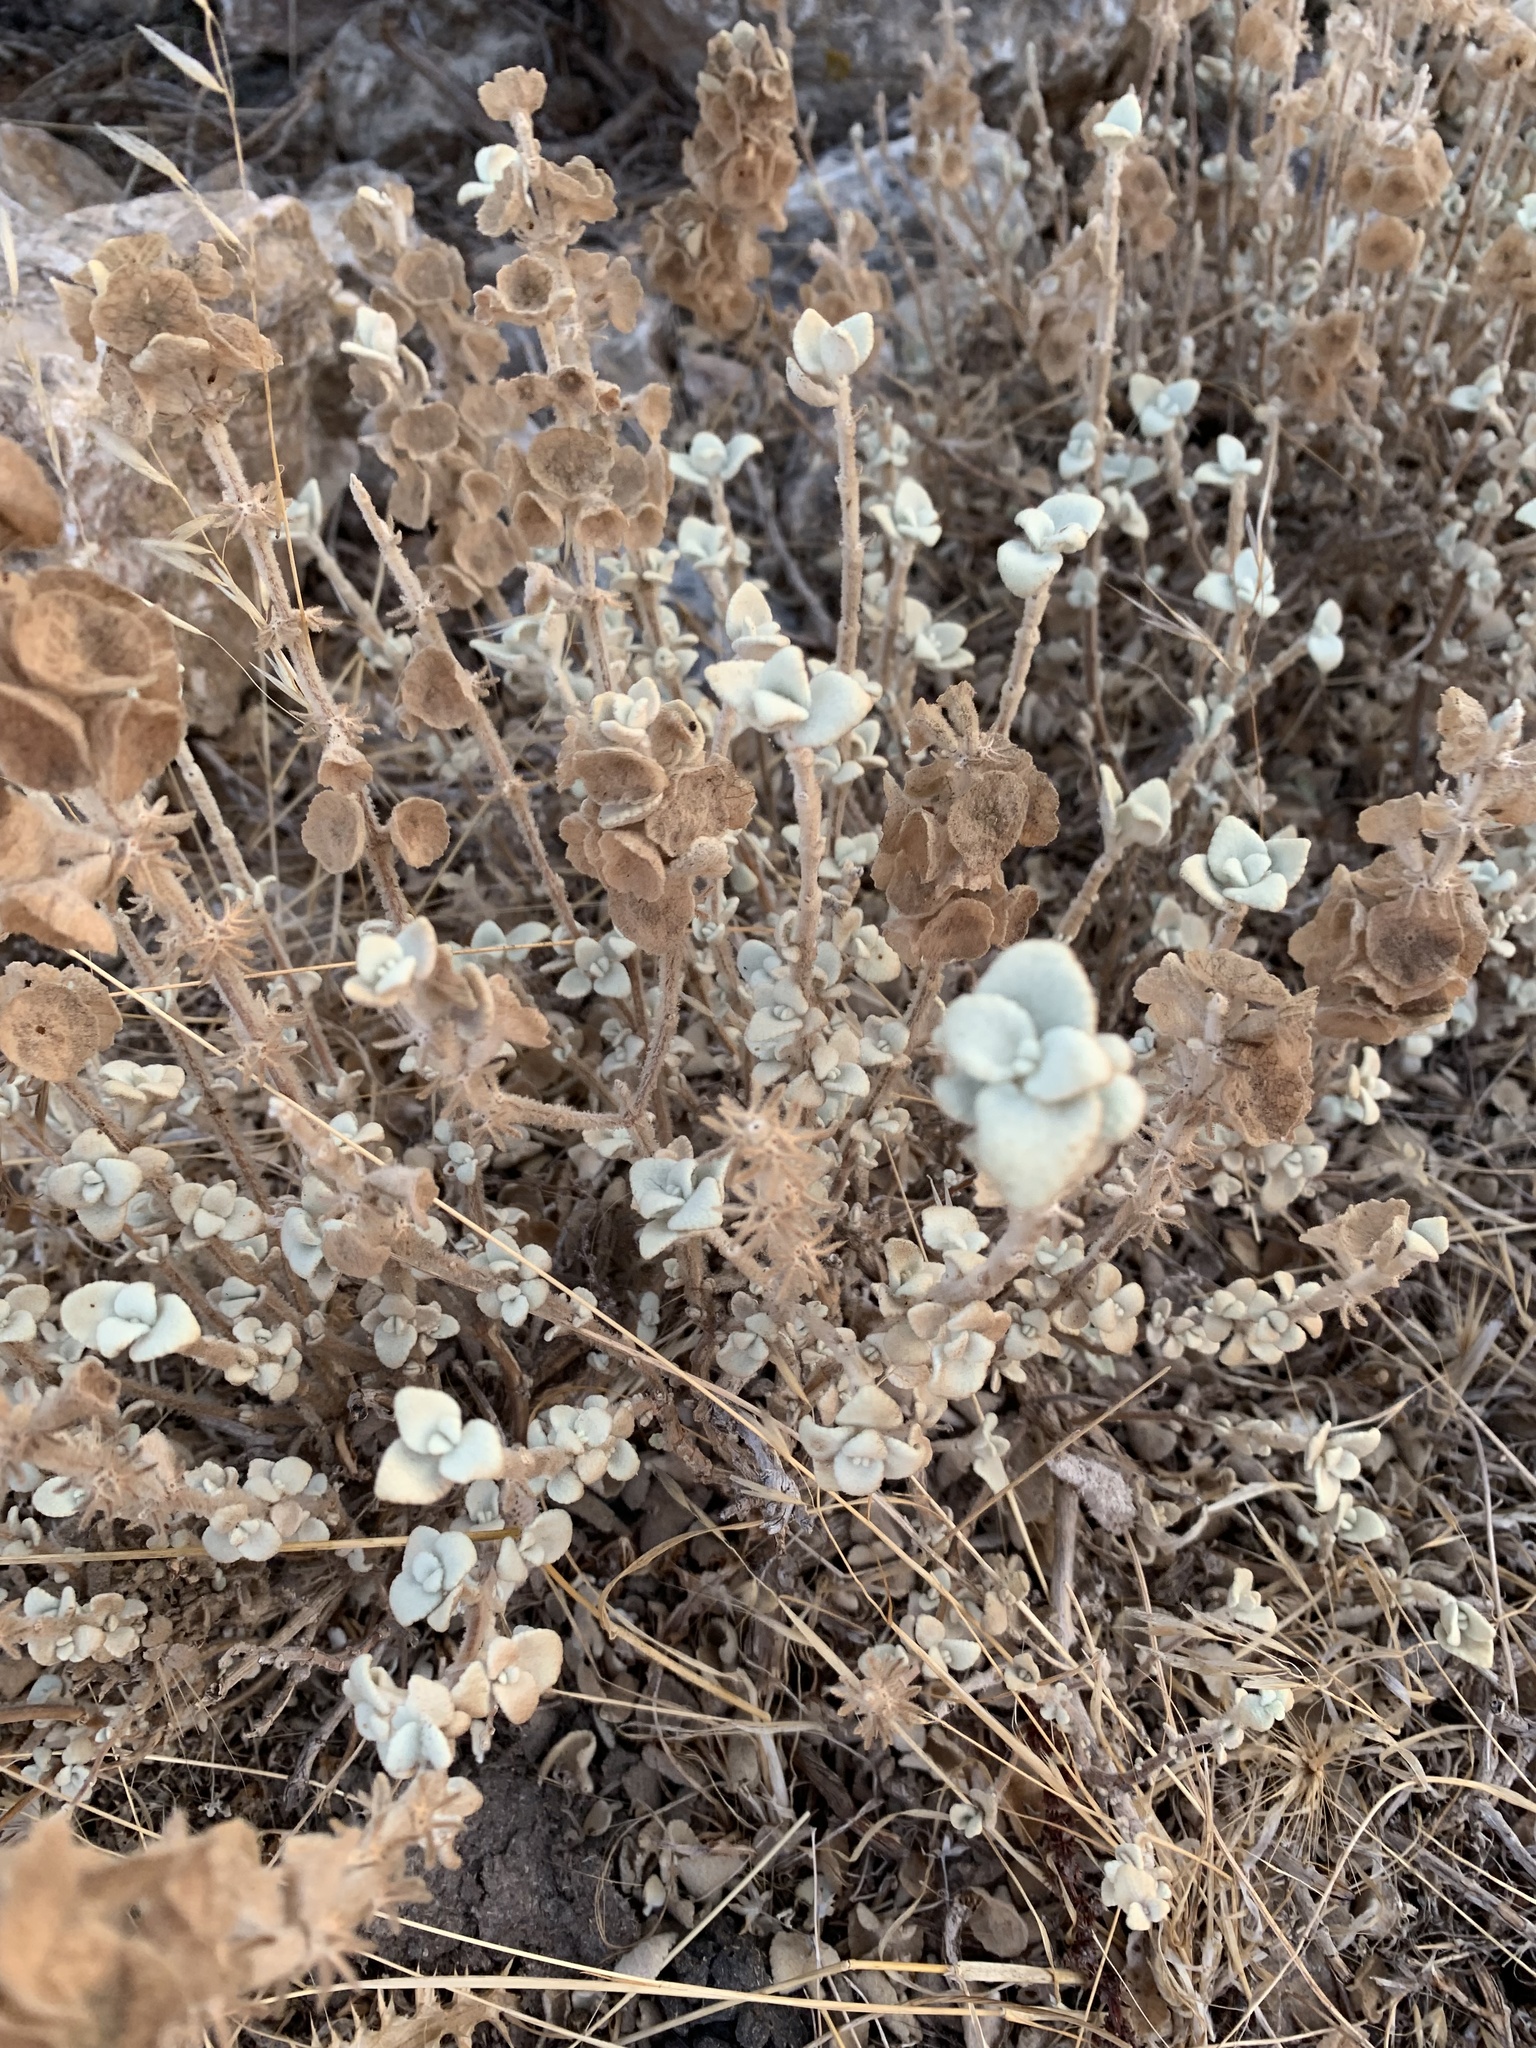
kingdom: Plantae
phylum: Tracheophyta
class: Magnoliopsida
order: Lamiales
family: Lamiaceae
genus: Pseudodictamnus
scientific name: Pseudodictamnus acetabulosus
